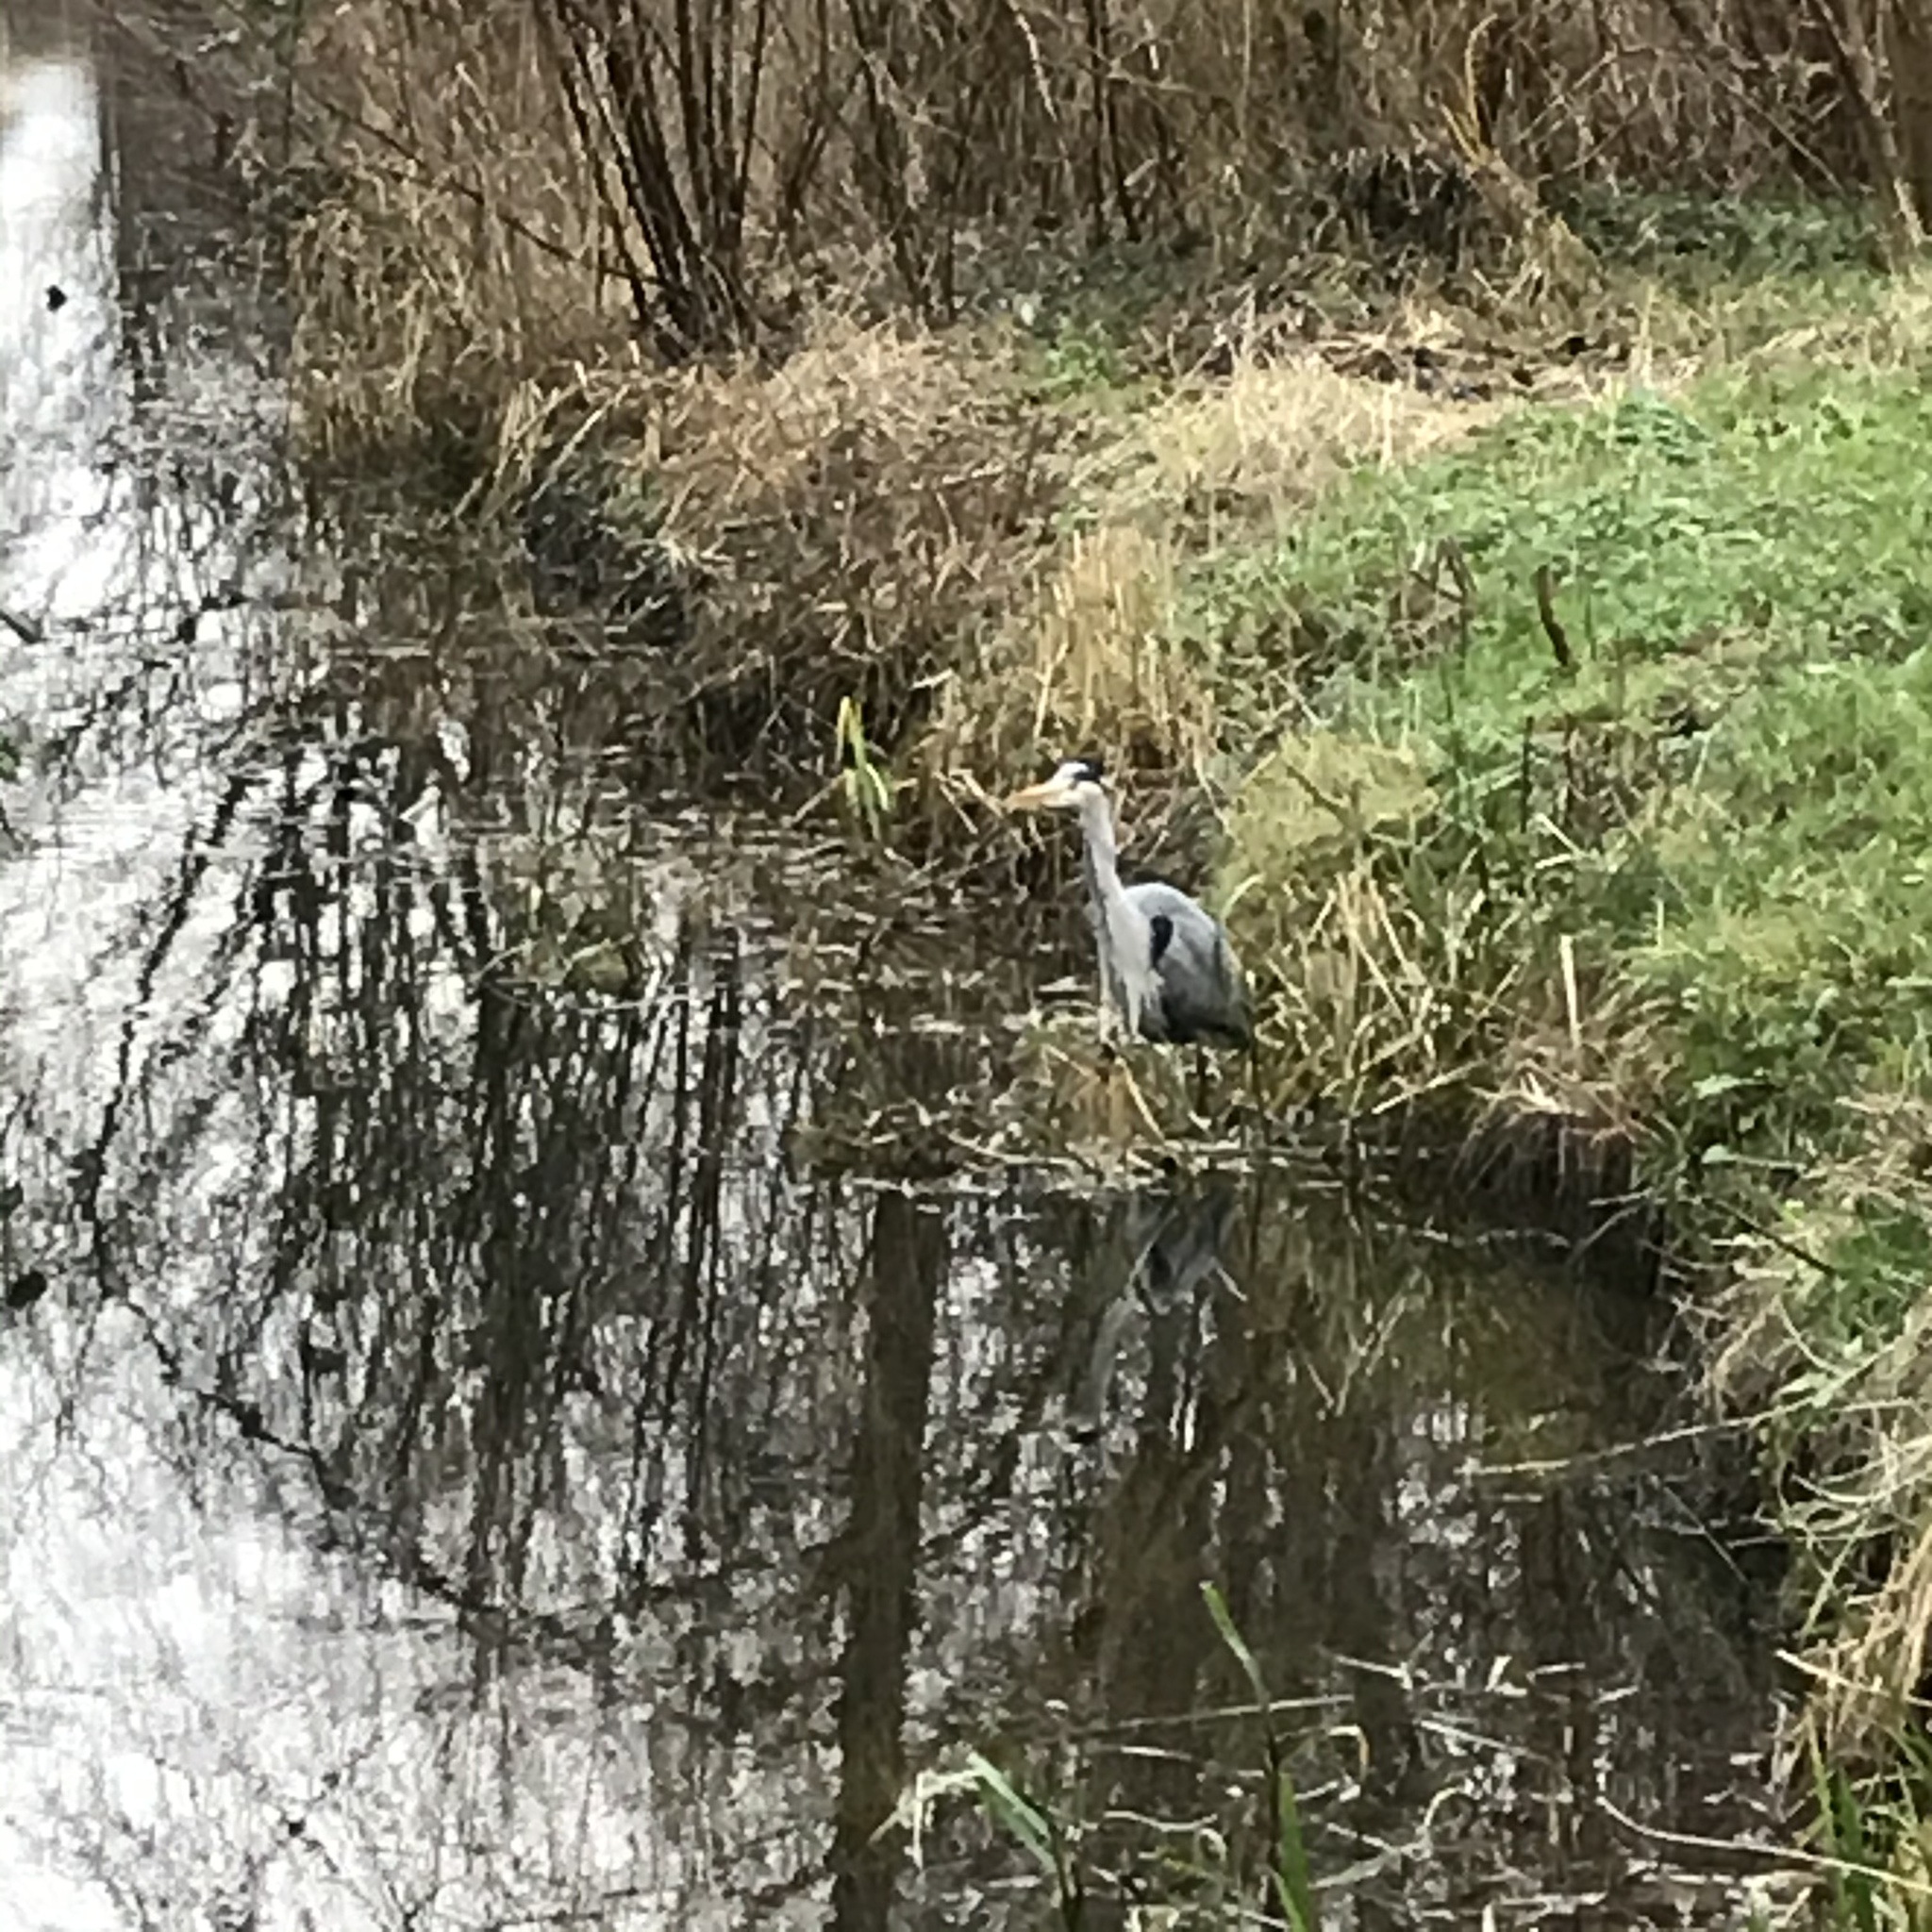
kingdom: Animalia
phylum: Chordata
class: Aves
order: Pelecaniformes
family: Ardeidae
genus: Ardea
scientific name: Ardea cinerea
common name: Grey heron
